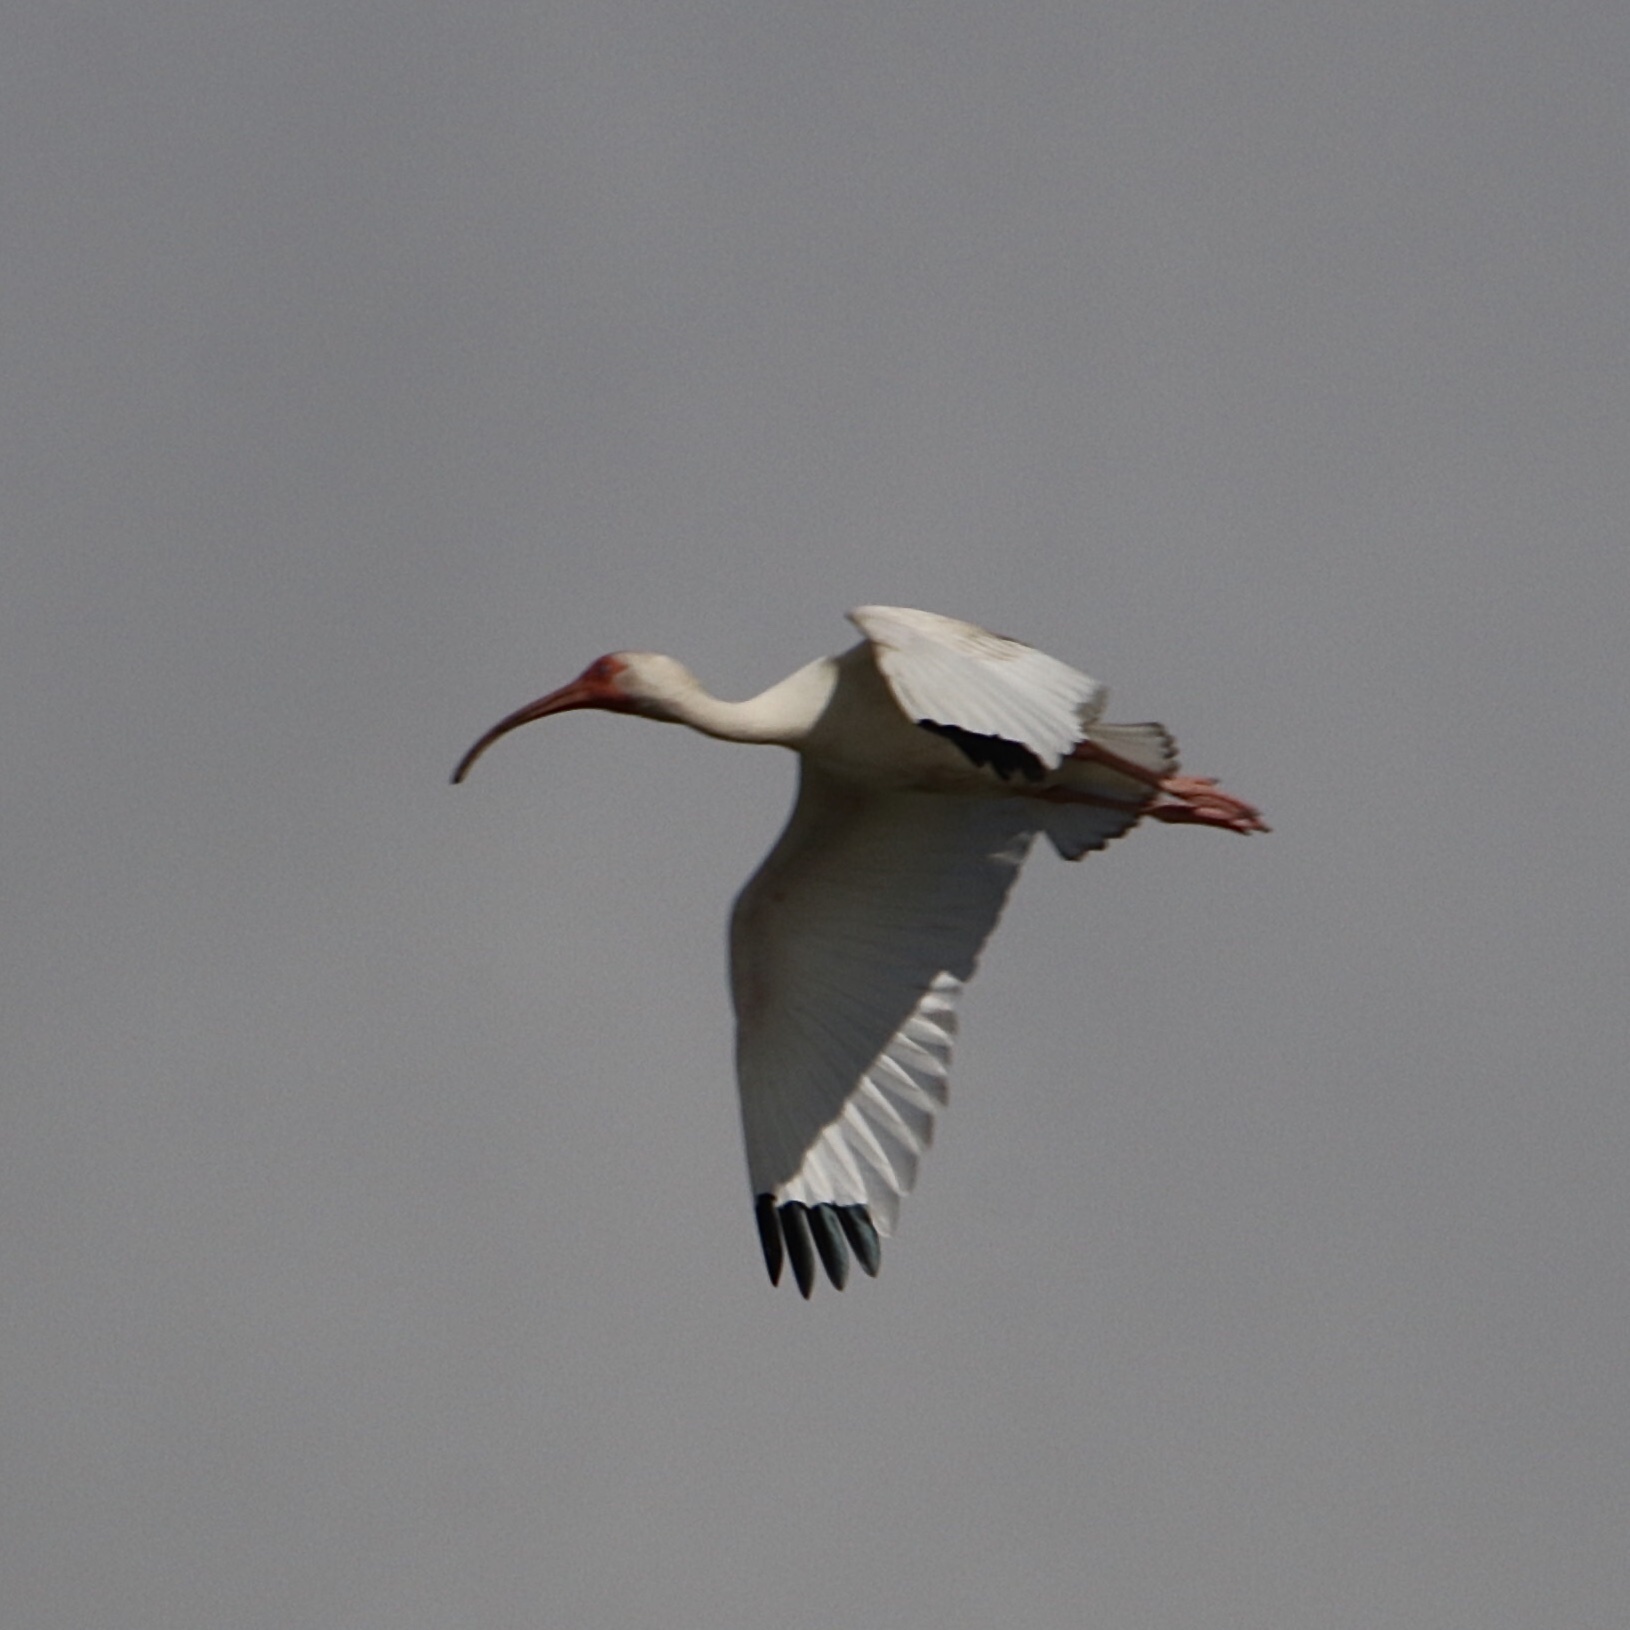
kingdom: Animalia
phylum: Chordata
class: Aves
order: Pelecaniformes
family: Threskiornithidae
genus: Eudocimus
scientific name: Eudocimus albus
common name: White ibis
